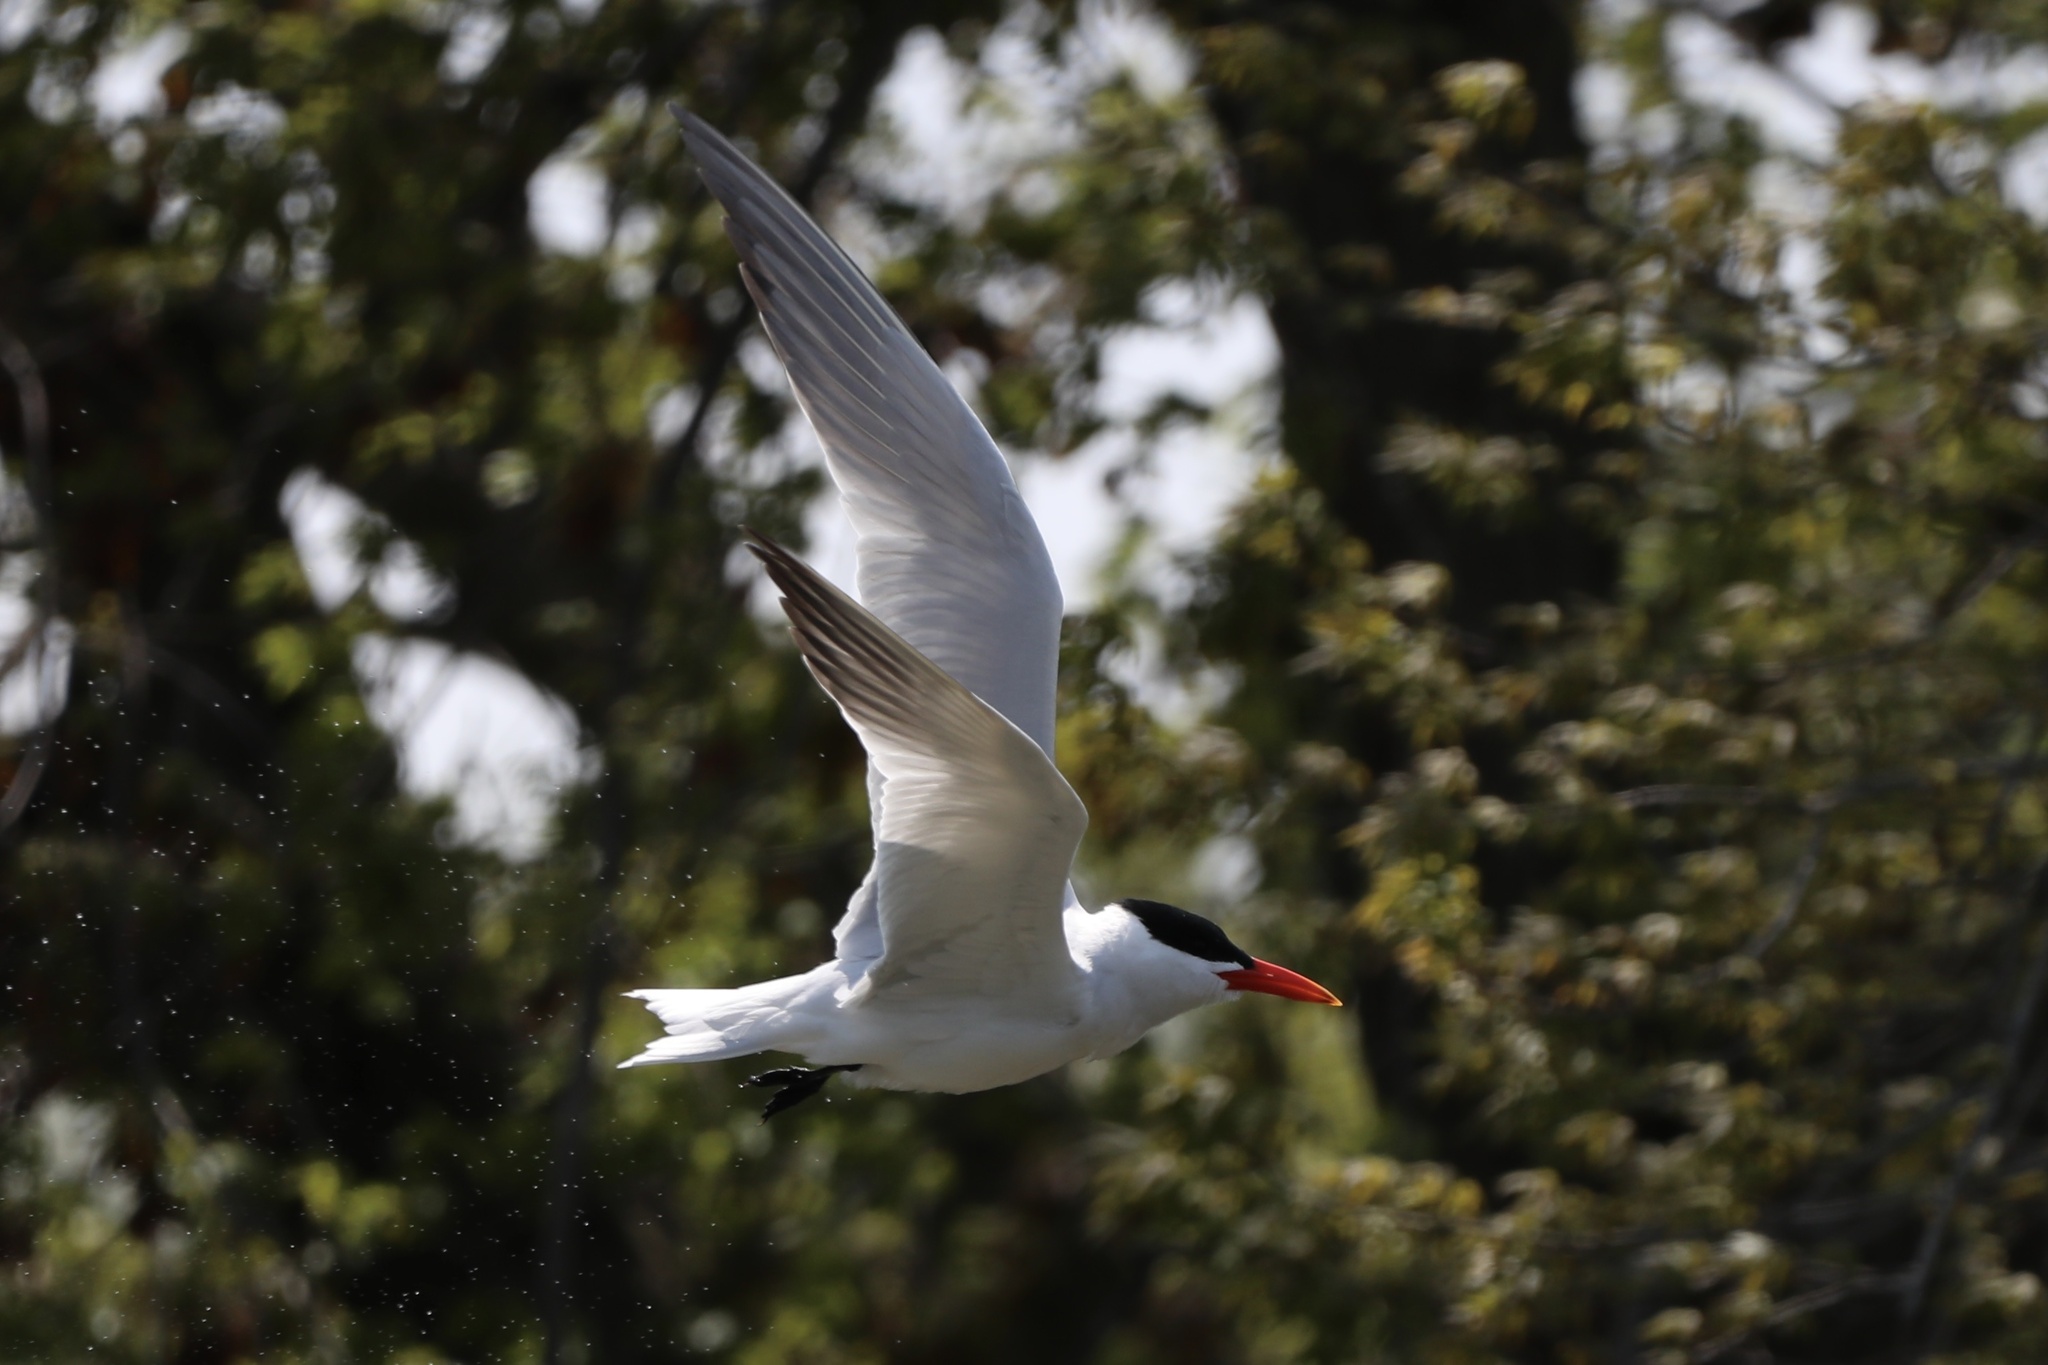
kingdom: Animalia
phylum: Chordata
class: Aves
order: Charadriiformes
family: Laridae
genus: Hydroprogne
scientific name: Hydroprogne caspia
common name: Caspian tern
